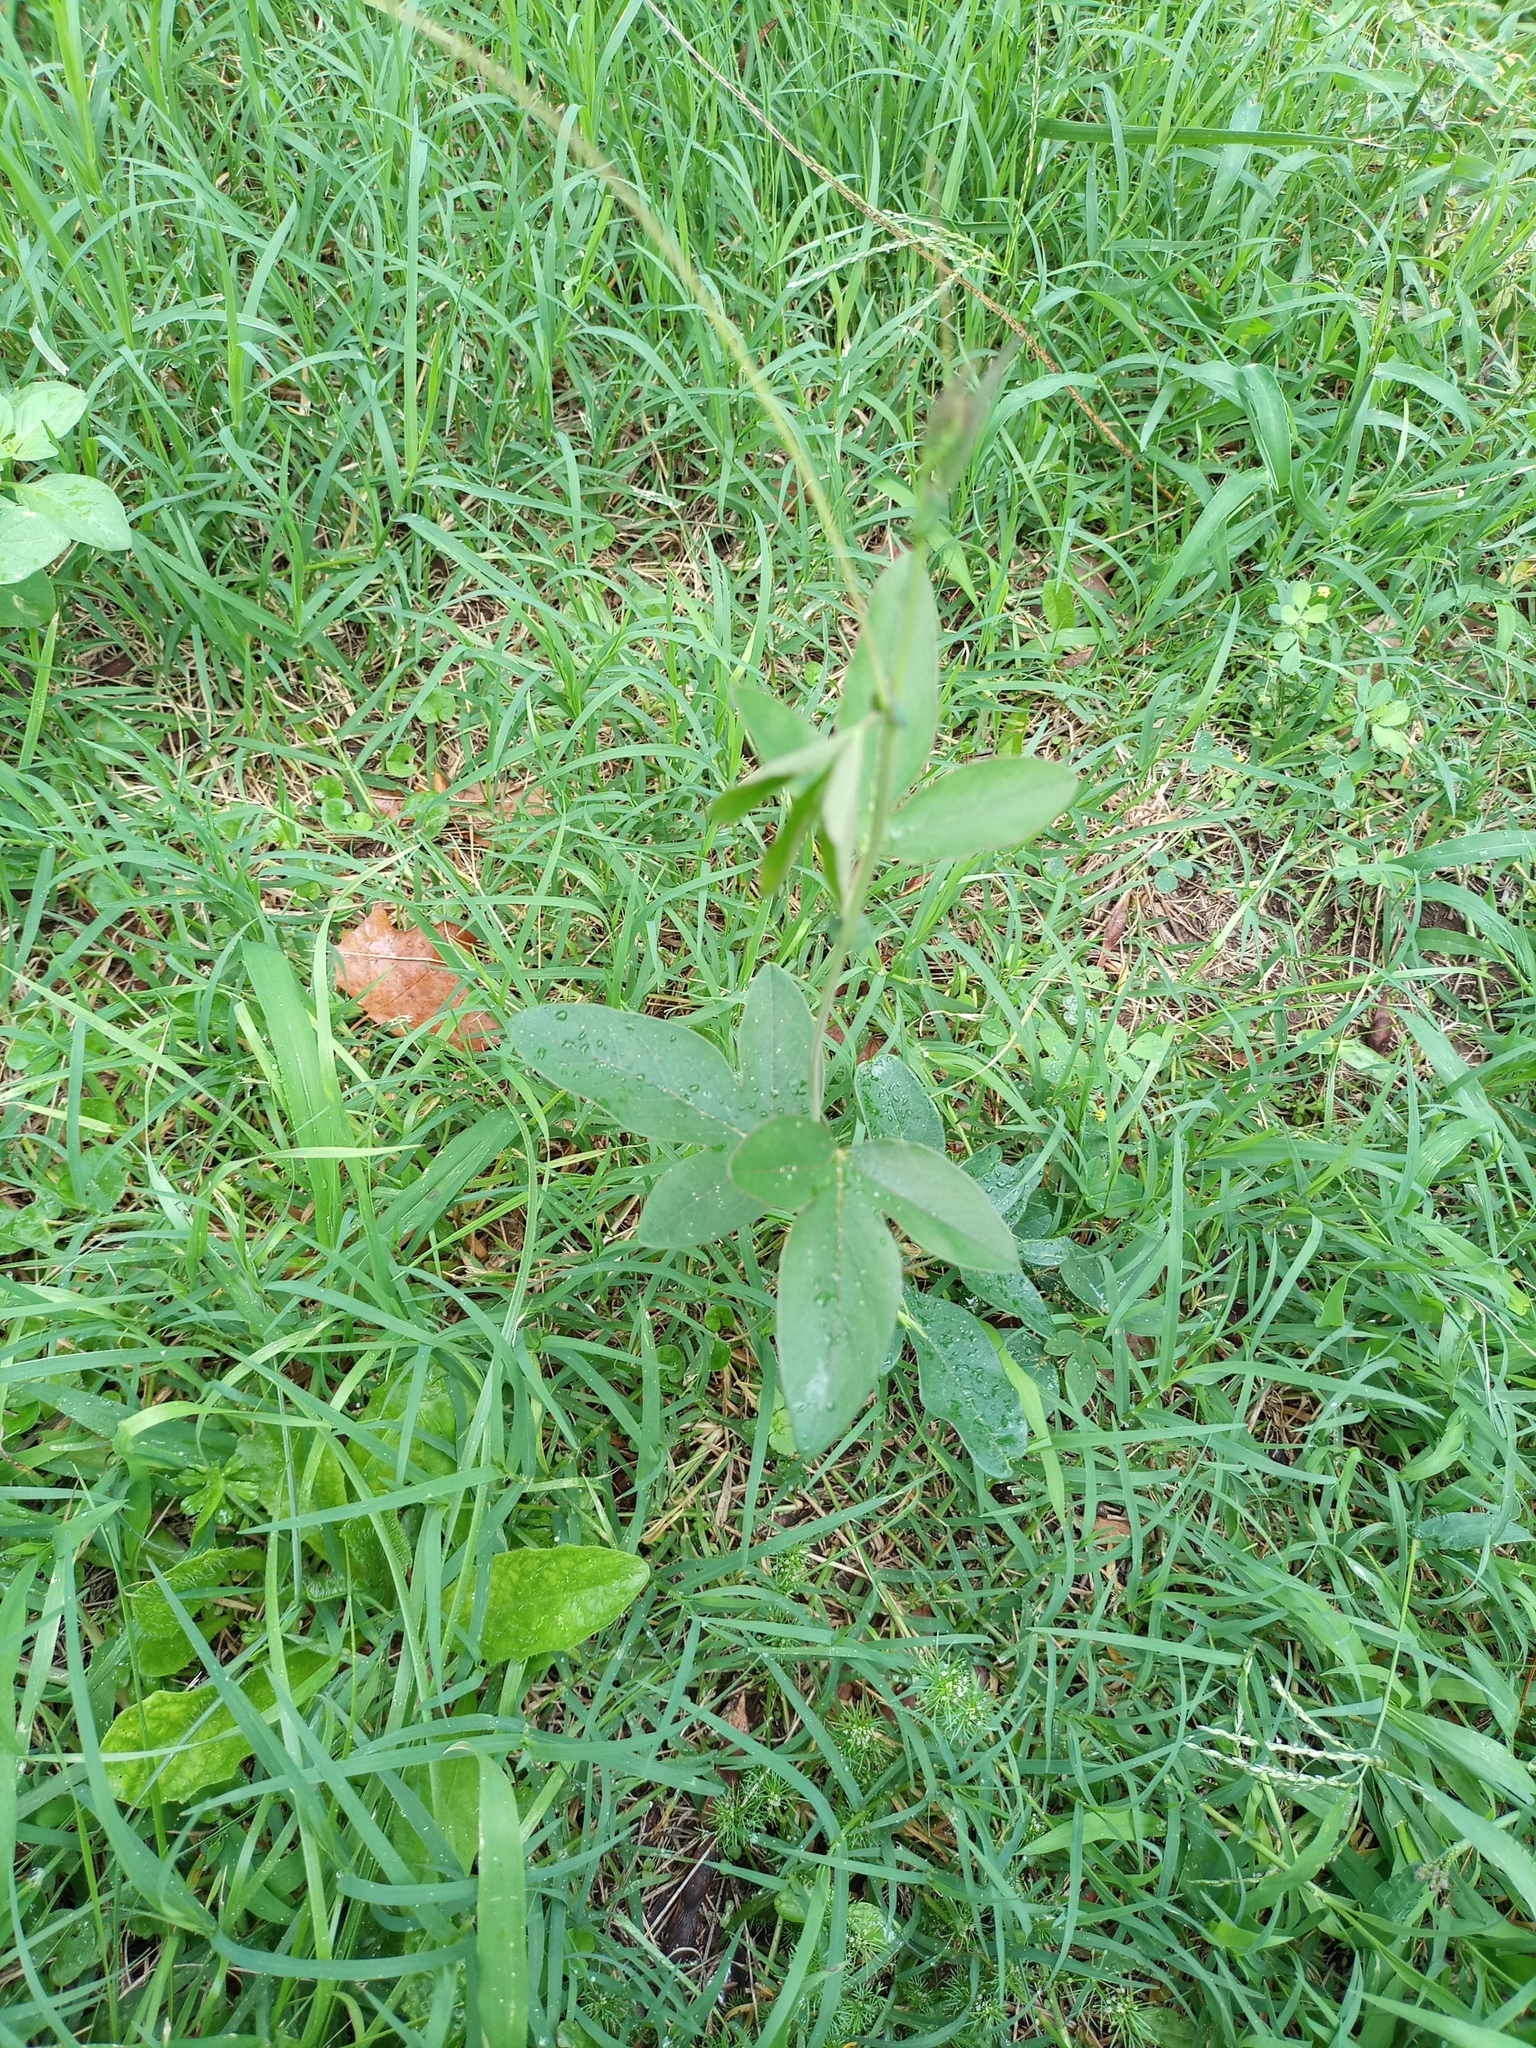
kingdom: Plantae
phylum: Tracheophyta
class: Magnoliopsida
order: Malpighiales
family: Passifloraceae
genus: Passiflora
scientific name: Passiflora caerulea
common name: Blue passionflower
